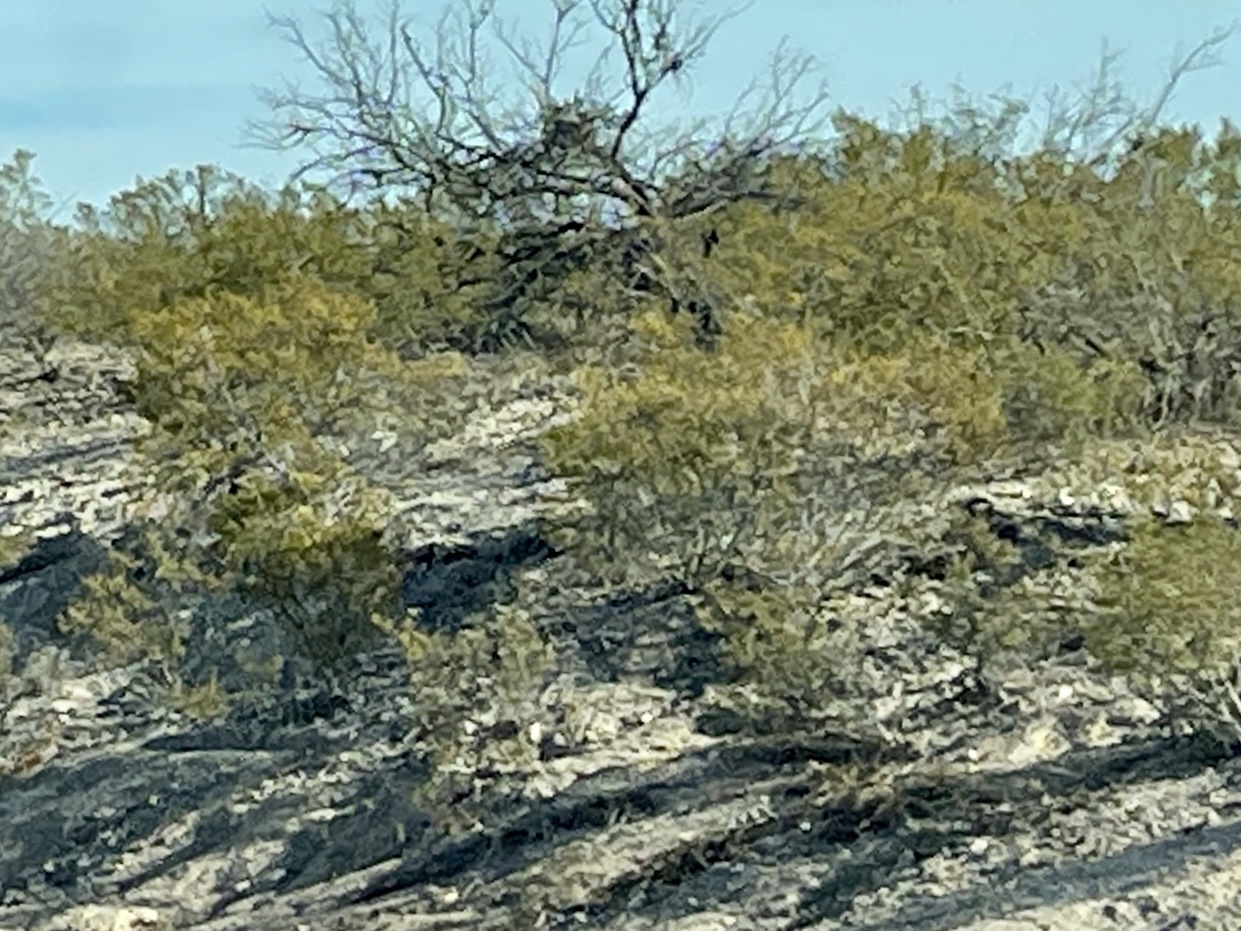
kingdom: Plantae
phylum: Tracheophyta
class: Magnoliopsida
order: Zygophyllales
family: Zygophyllaceae
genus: Larrea
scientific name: Larrea tridentata
